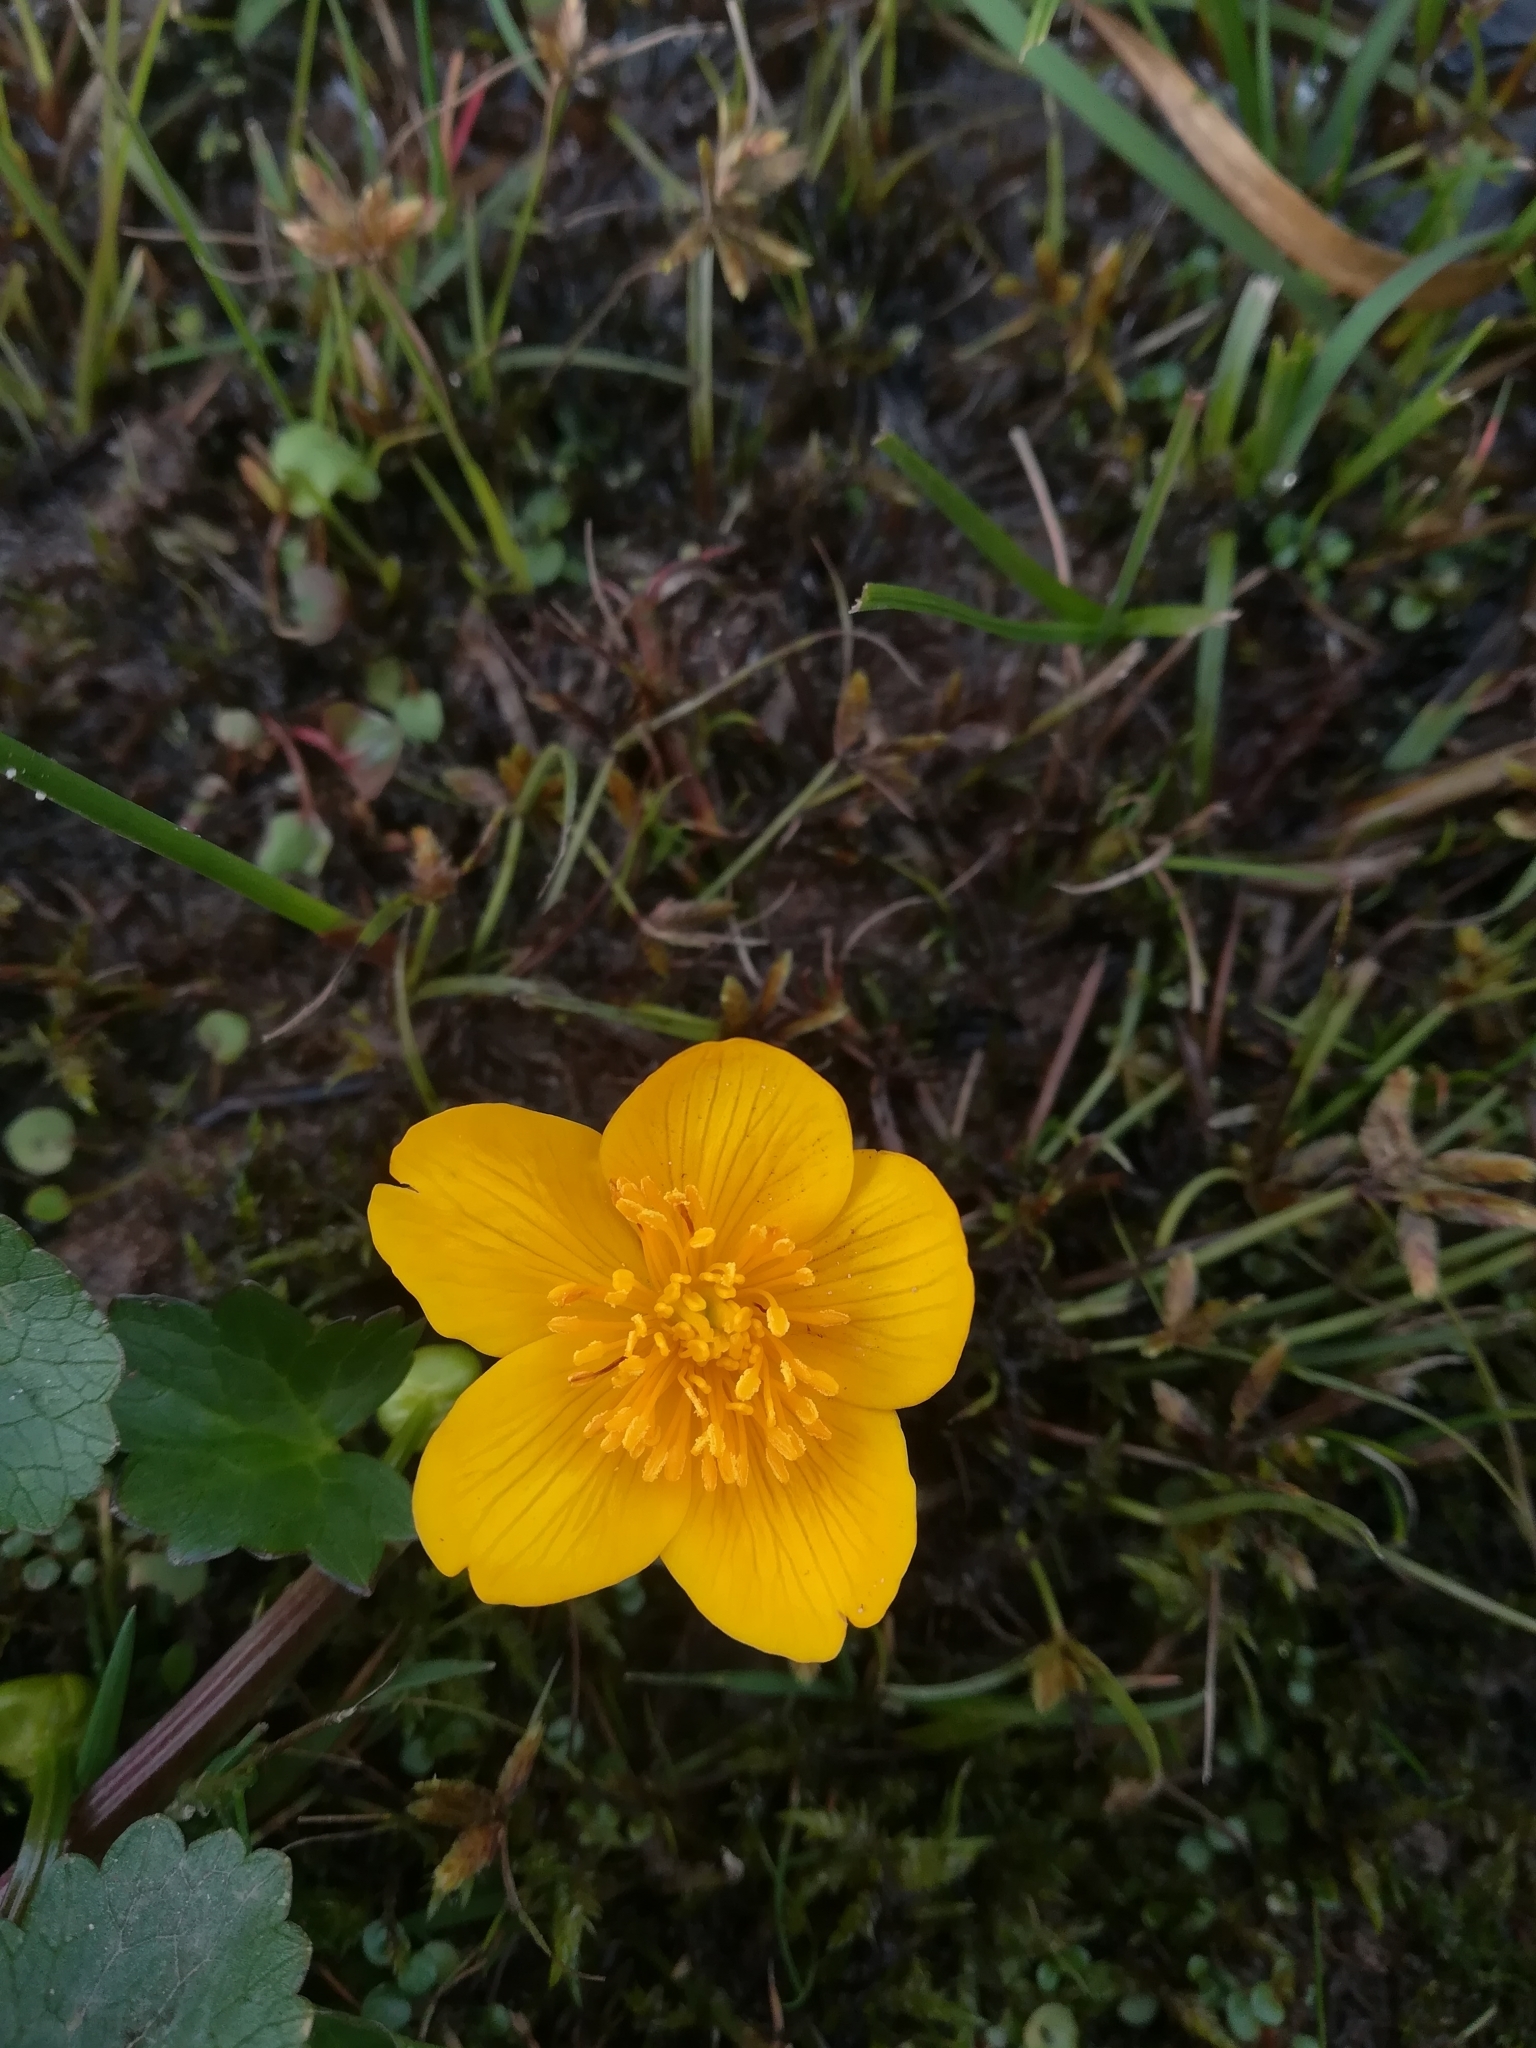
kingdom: Plantae
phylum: Tracheophyta
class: Magnoliopsida
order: Ranunculales
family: Ranunculaceae
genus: Caltha
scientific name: Caltha palustris
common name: Marsh marigold
